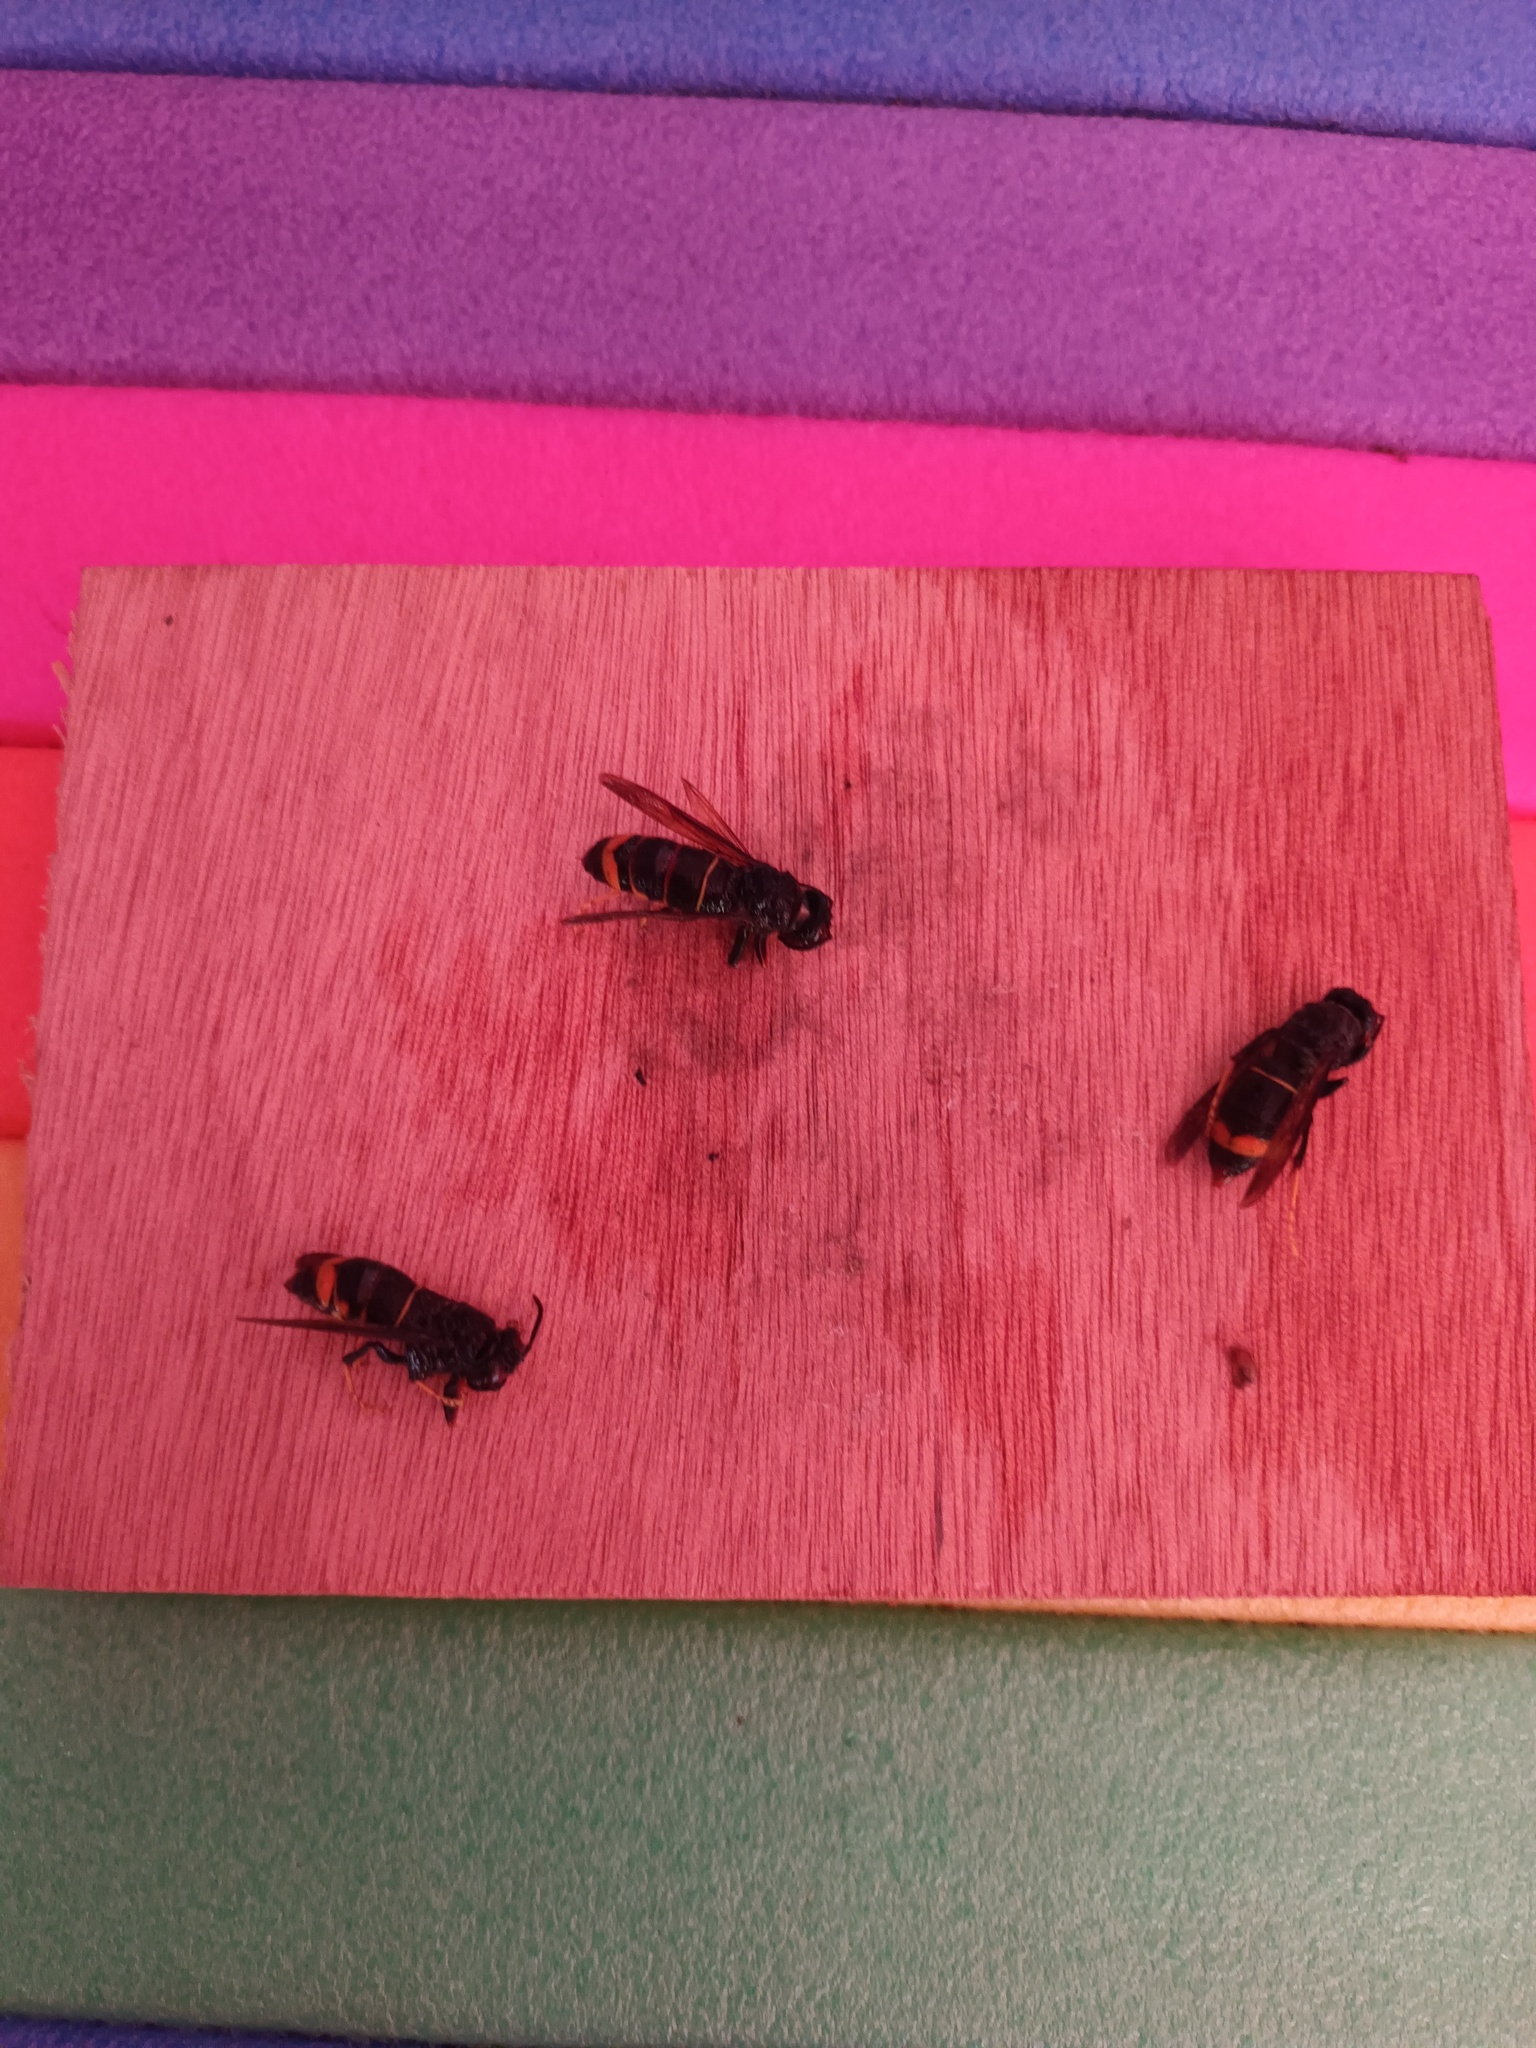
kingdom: Animalia
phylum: Arthropoda
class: Insecta
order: Hymenoptera
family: Vespidae
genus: Vespa
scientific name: Vespa velutina
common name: Asian hornet
